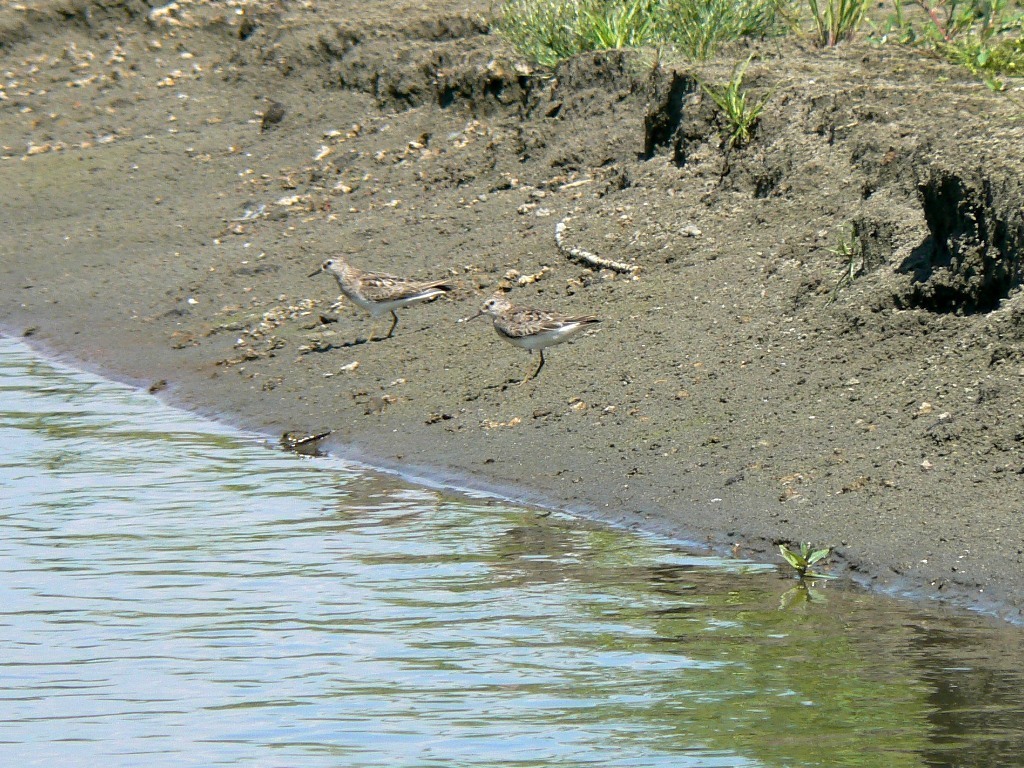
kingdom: Animalia
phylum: Chordata
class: Aves
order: Charadriiformes
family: Scolopacidae
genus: Calidris
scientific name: Calidris temminckii
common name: Temminck's stint
